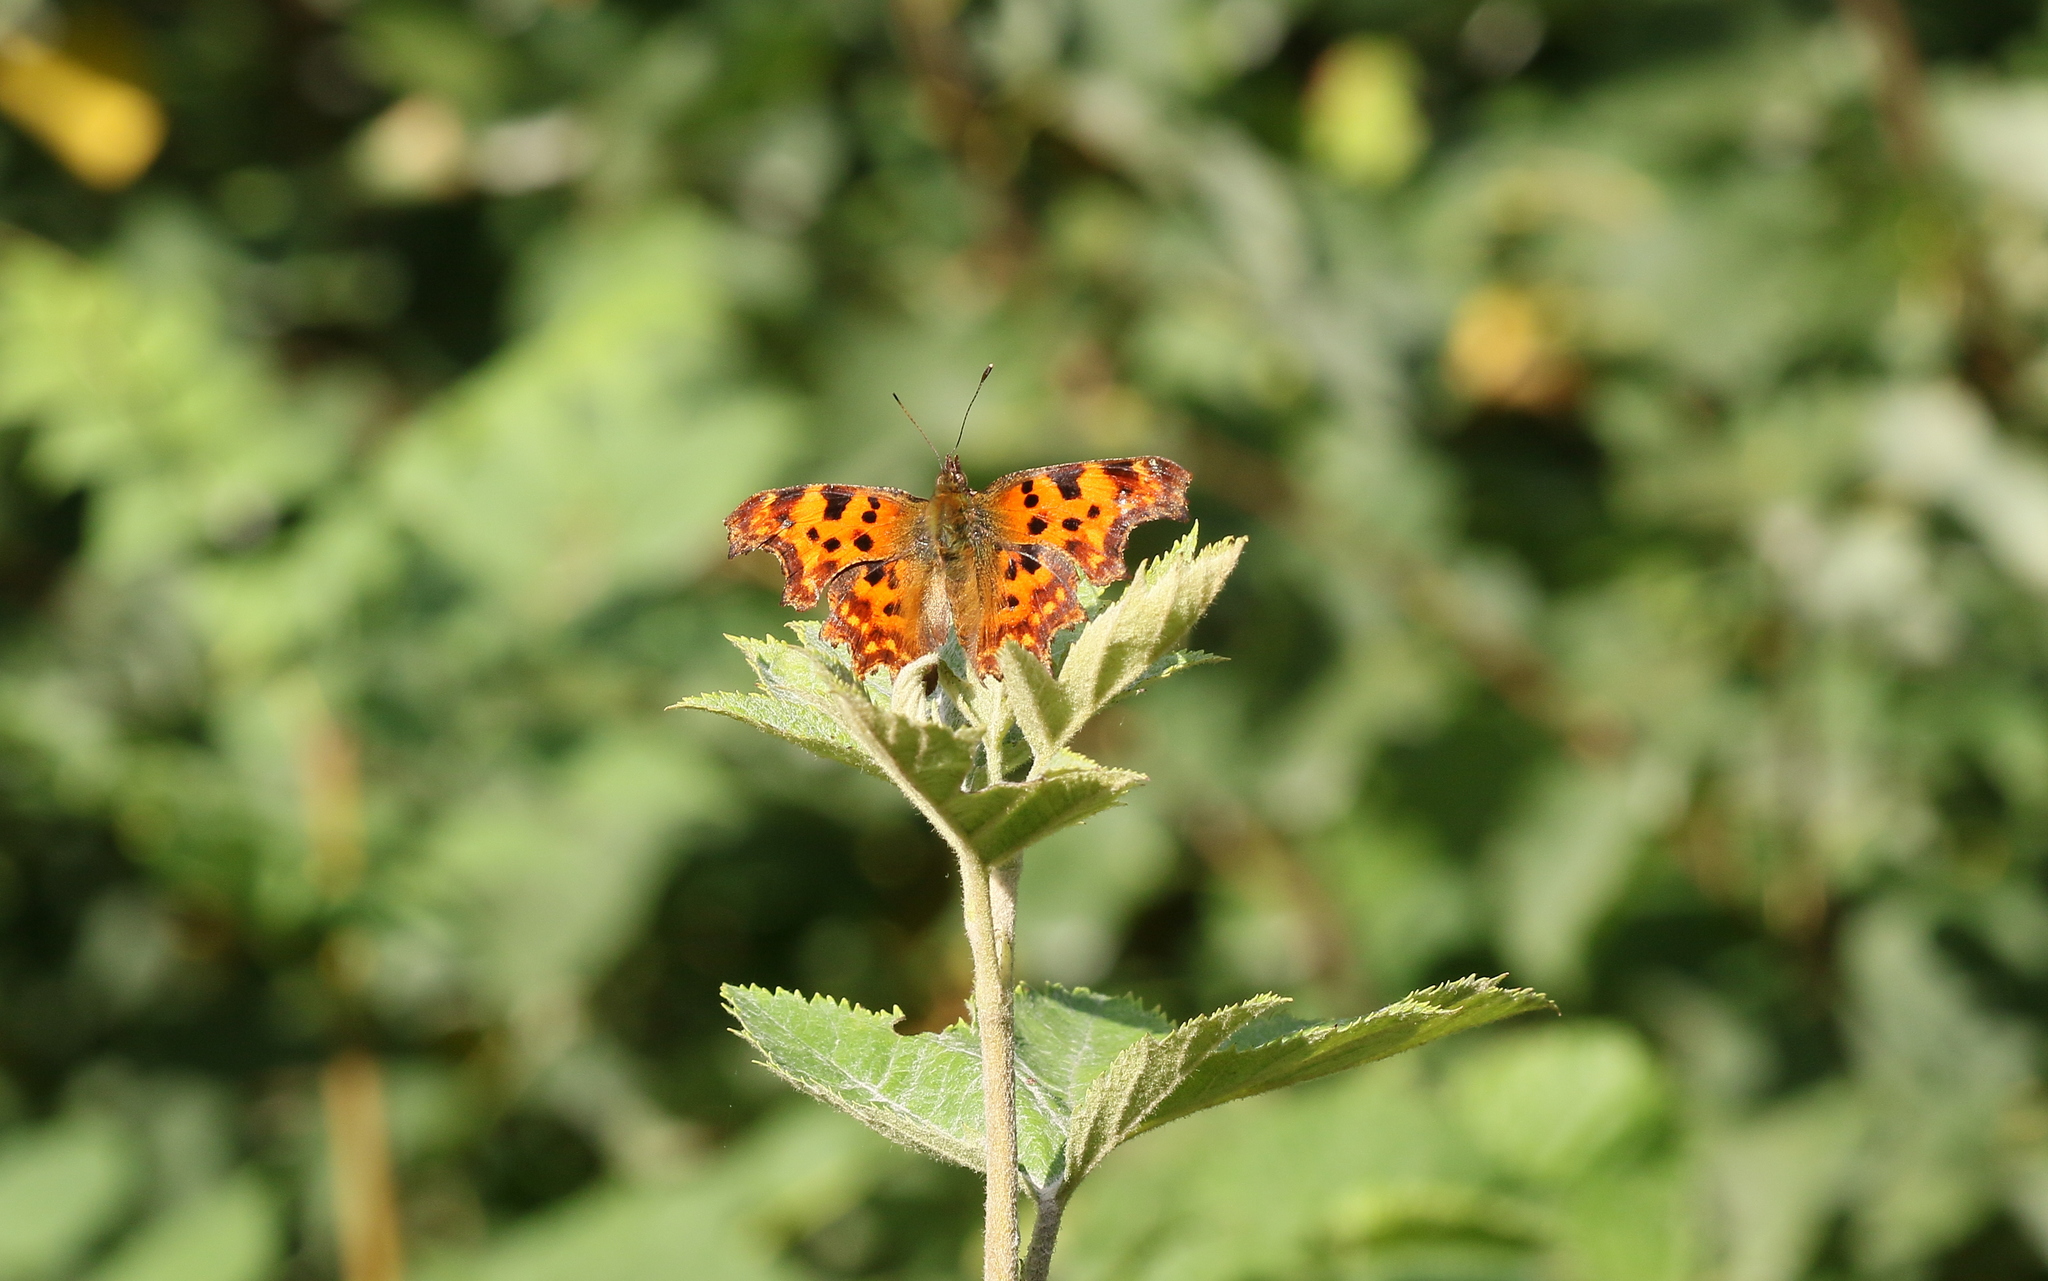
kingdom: Animalia
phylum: Arthropoda
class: Insecta
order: Lepidoptera
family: Nymphalidae
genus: Polygonia
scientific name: Polygonia c-album
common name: Comma
